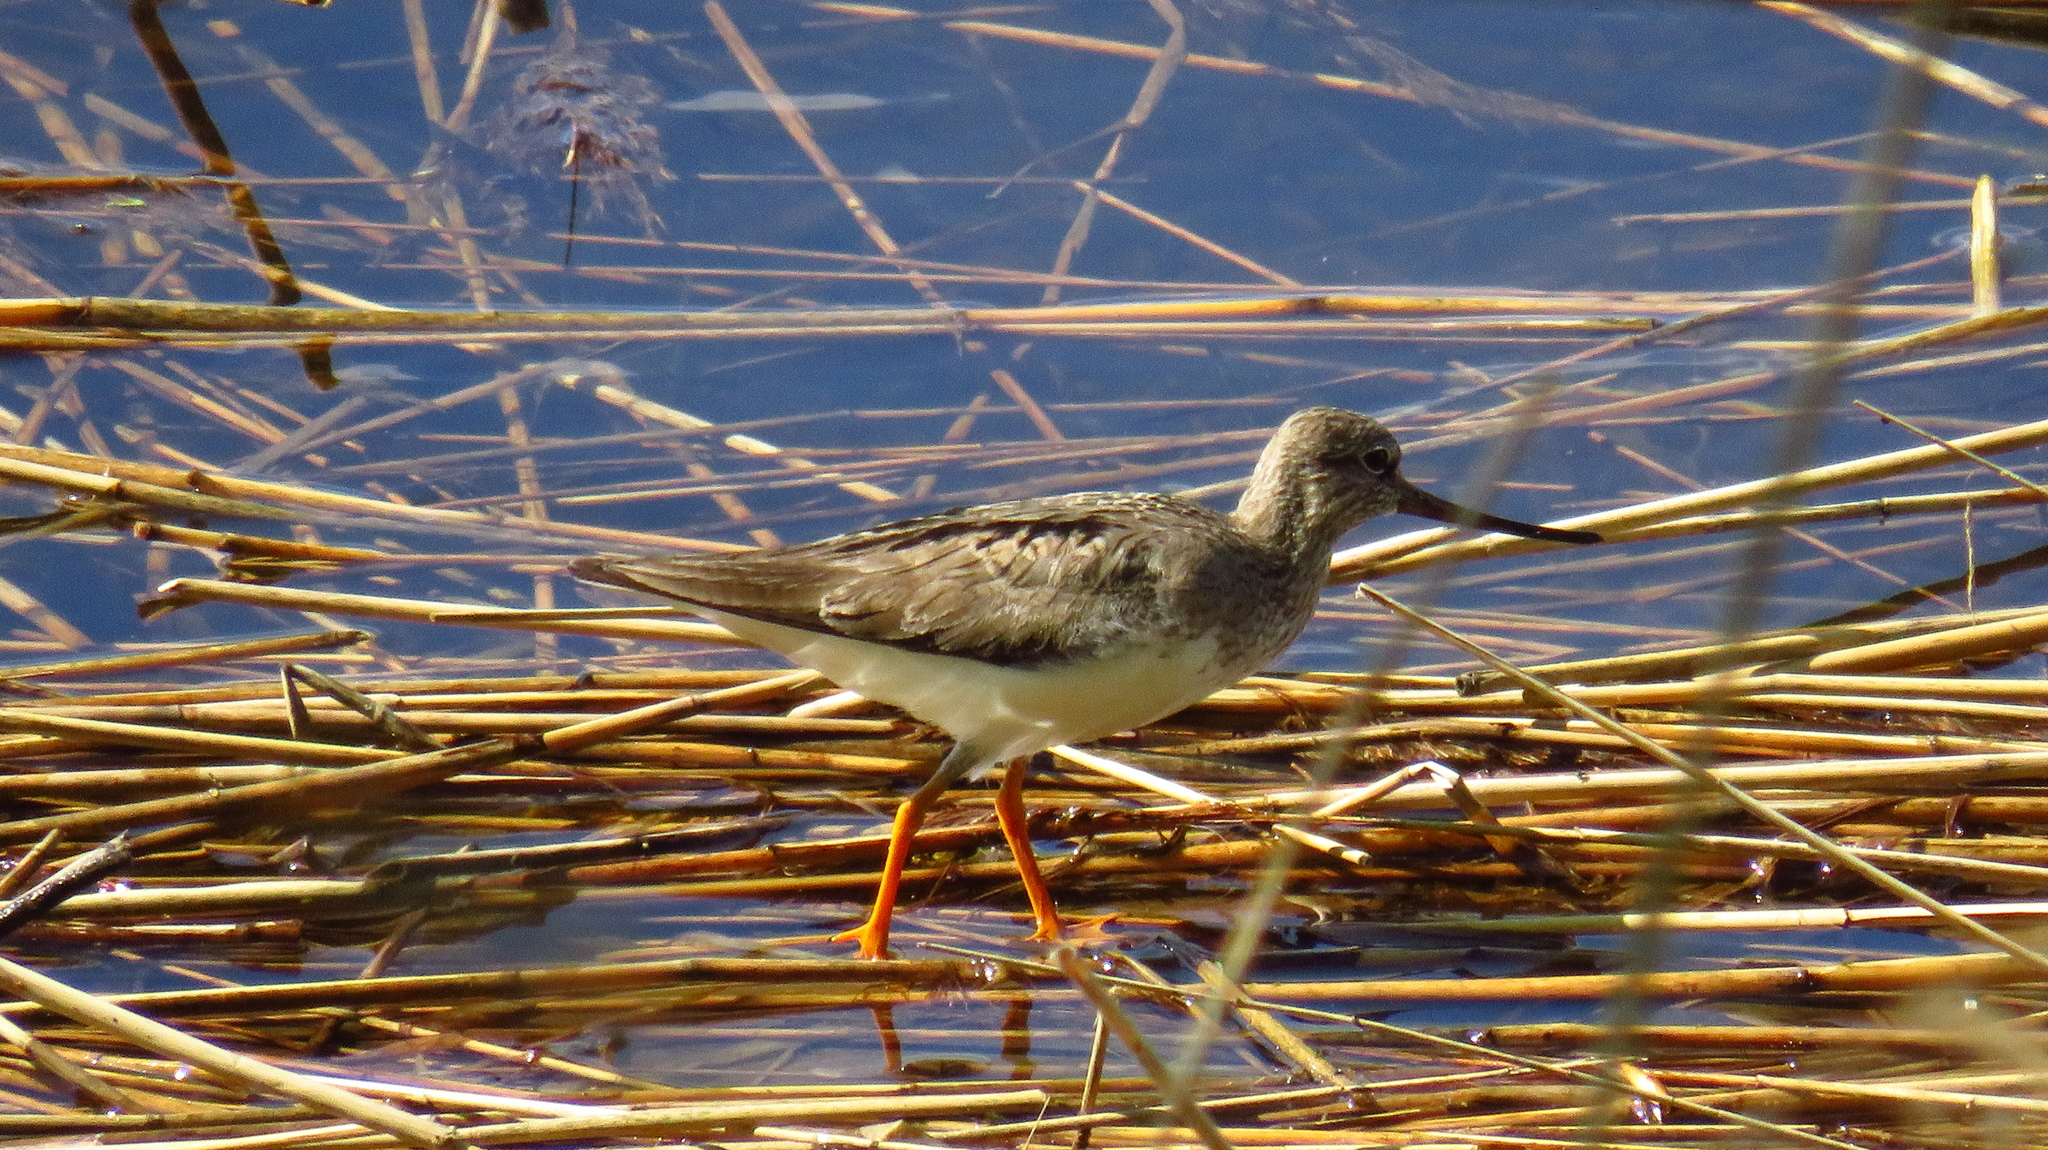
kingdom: Animalia
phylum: Chordata
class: Aves
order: Charadriiformes
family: Scolopacidae
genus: Xenus
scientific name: Xenus cinereus
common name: Terek sandpiper
